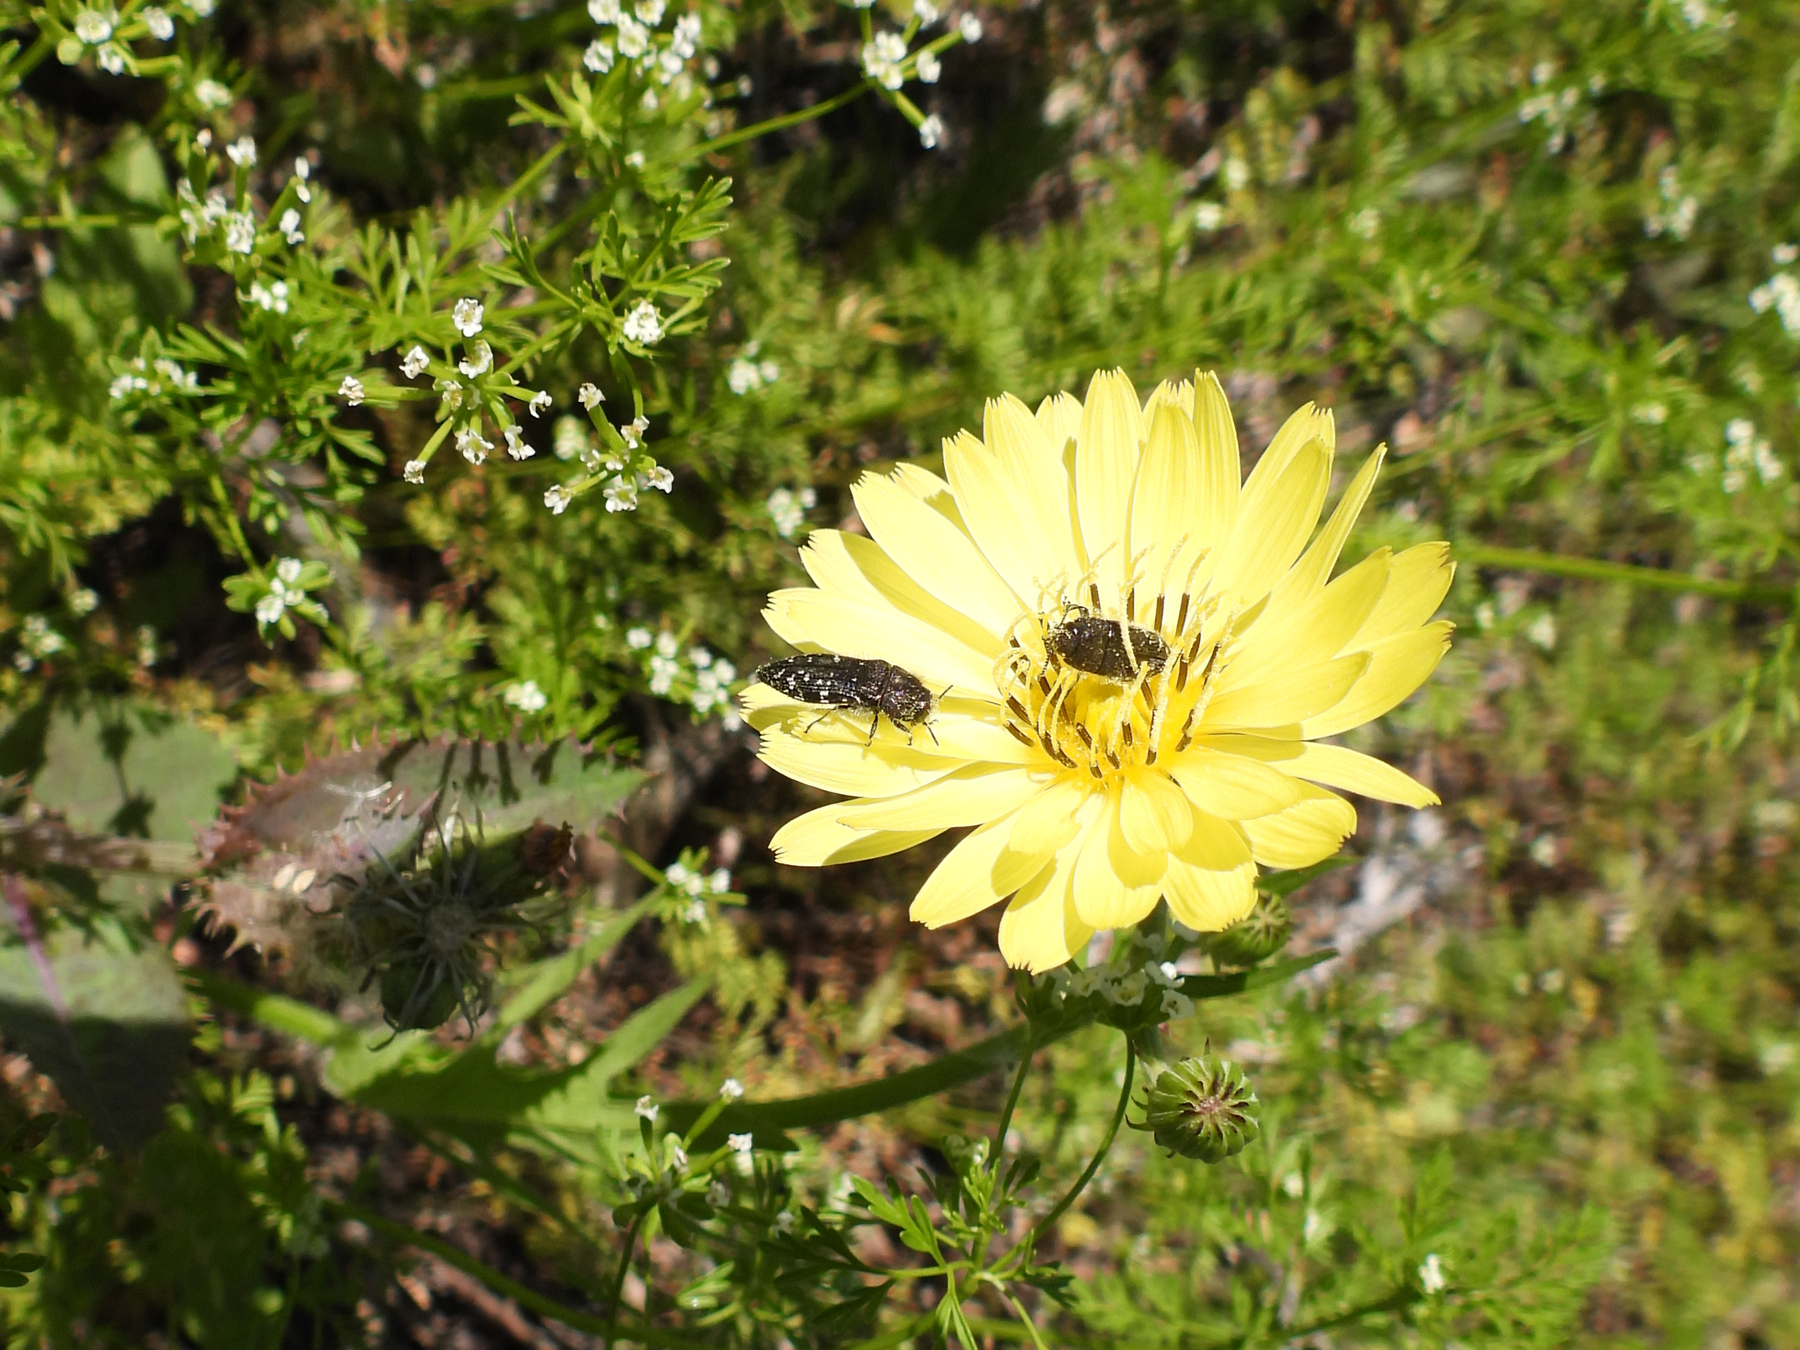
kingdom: Animalia
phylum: Arthropoda
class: Insecta
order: Coleoptera
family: Buprestidae
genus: Acmaeodera
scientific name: Acmaeodera ornatoides
